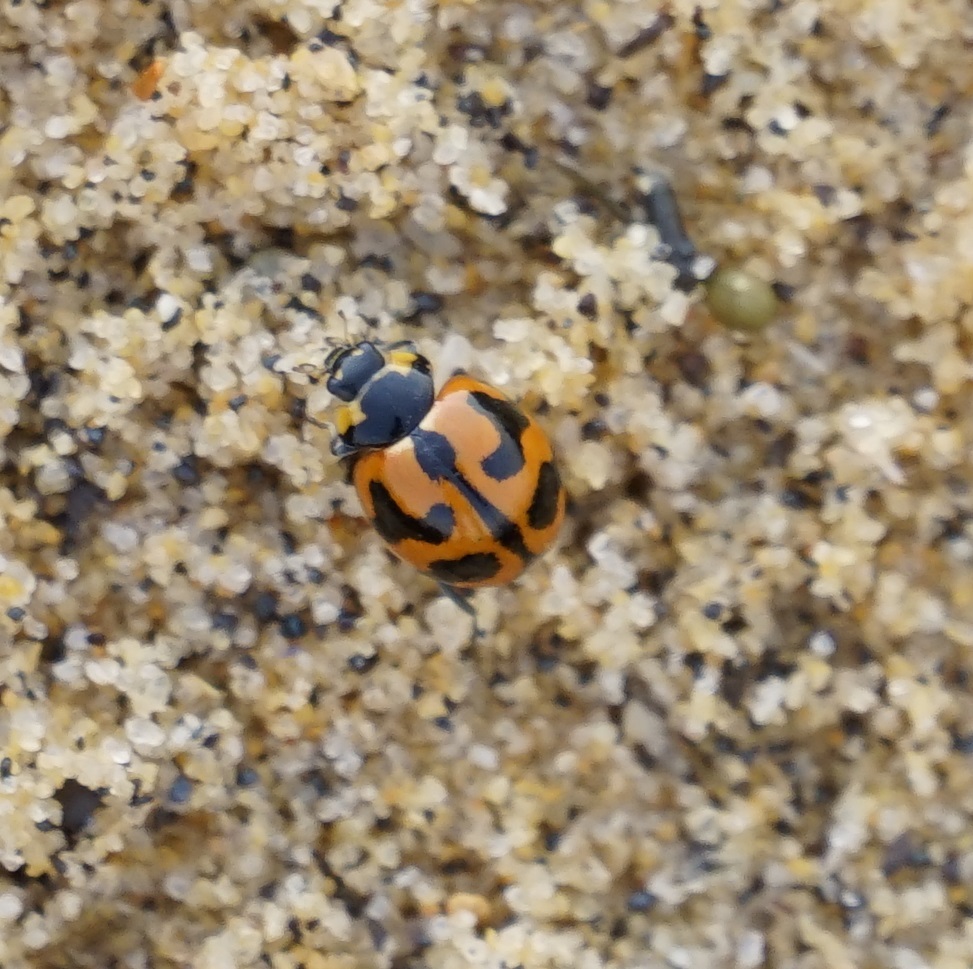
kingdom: Animalia
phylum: Arthropoda
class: Insecta
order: Coleoptera
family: Coccinellidae
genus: Coccinella
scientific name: Coccinella transversalis
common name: Transverse lady beetle
